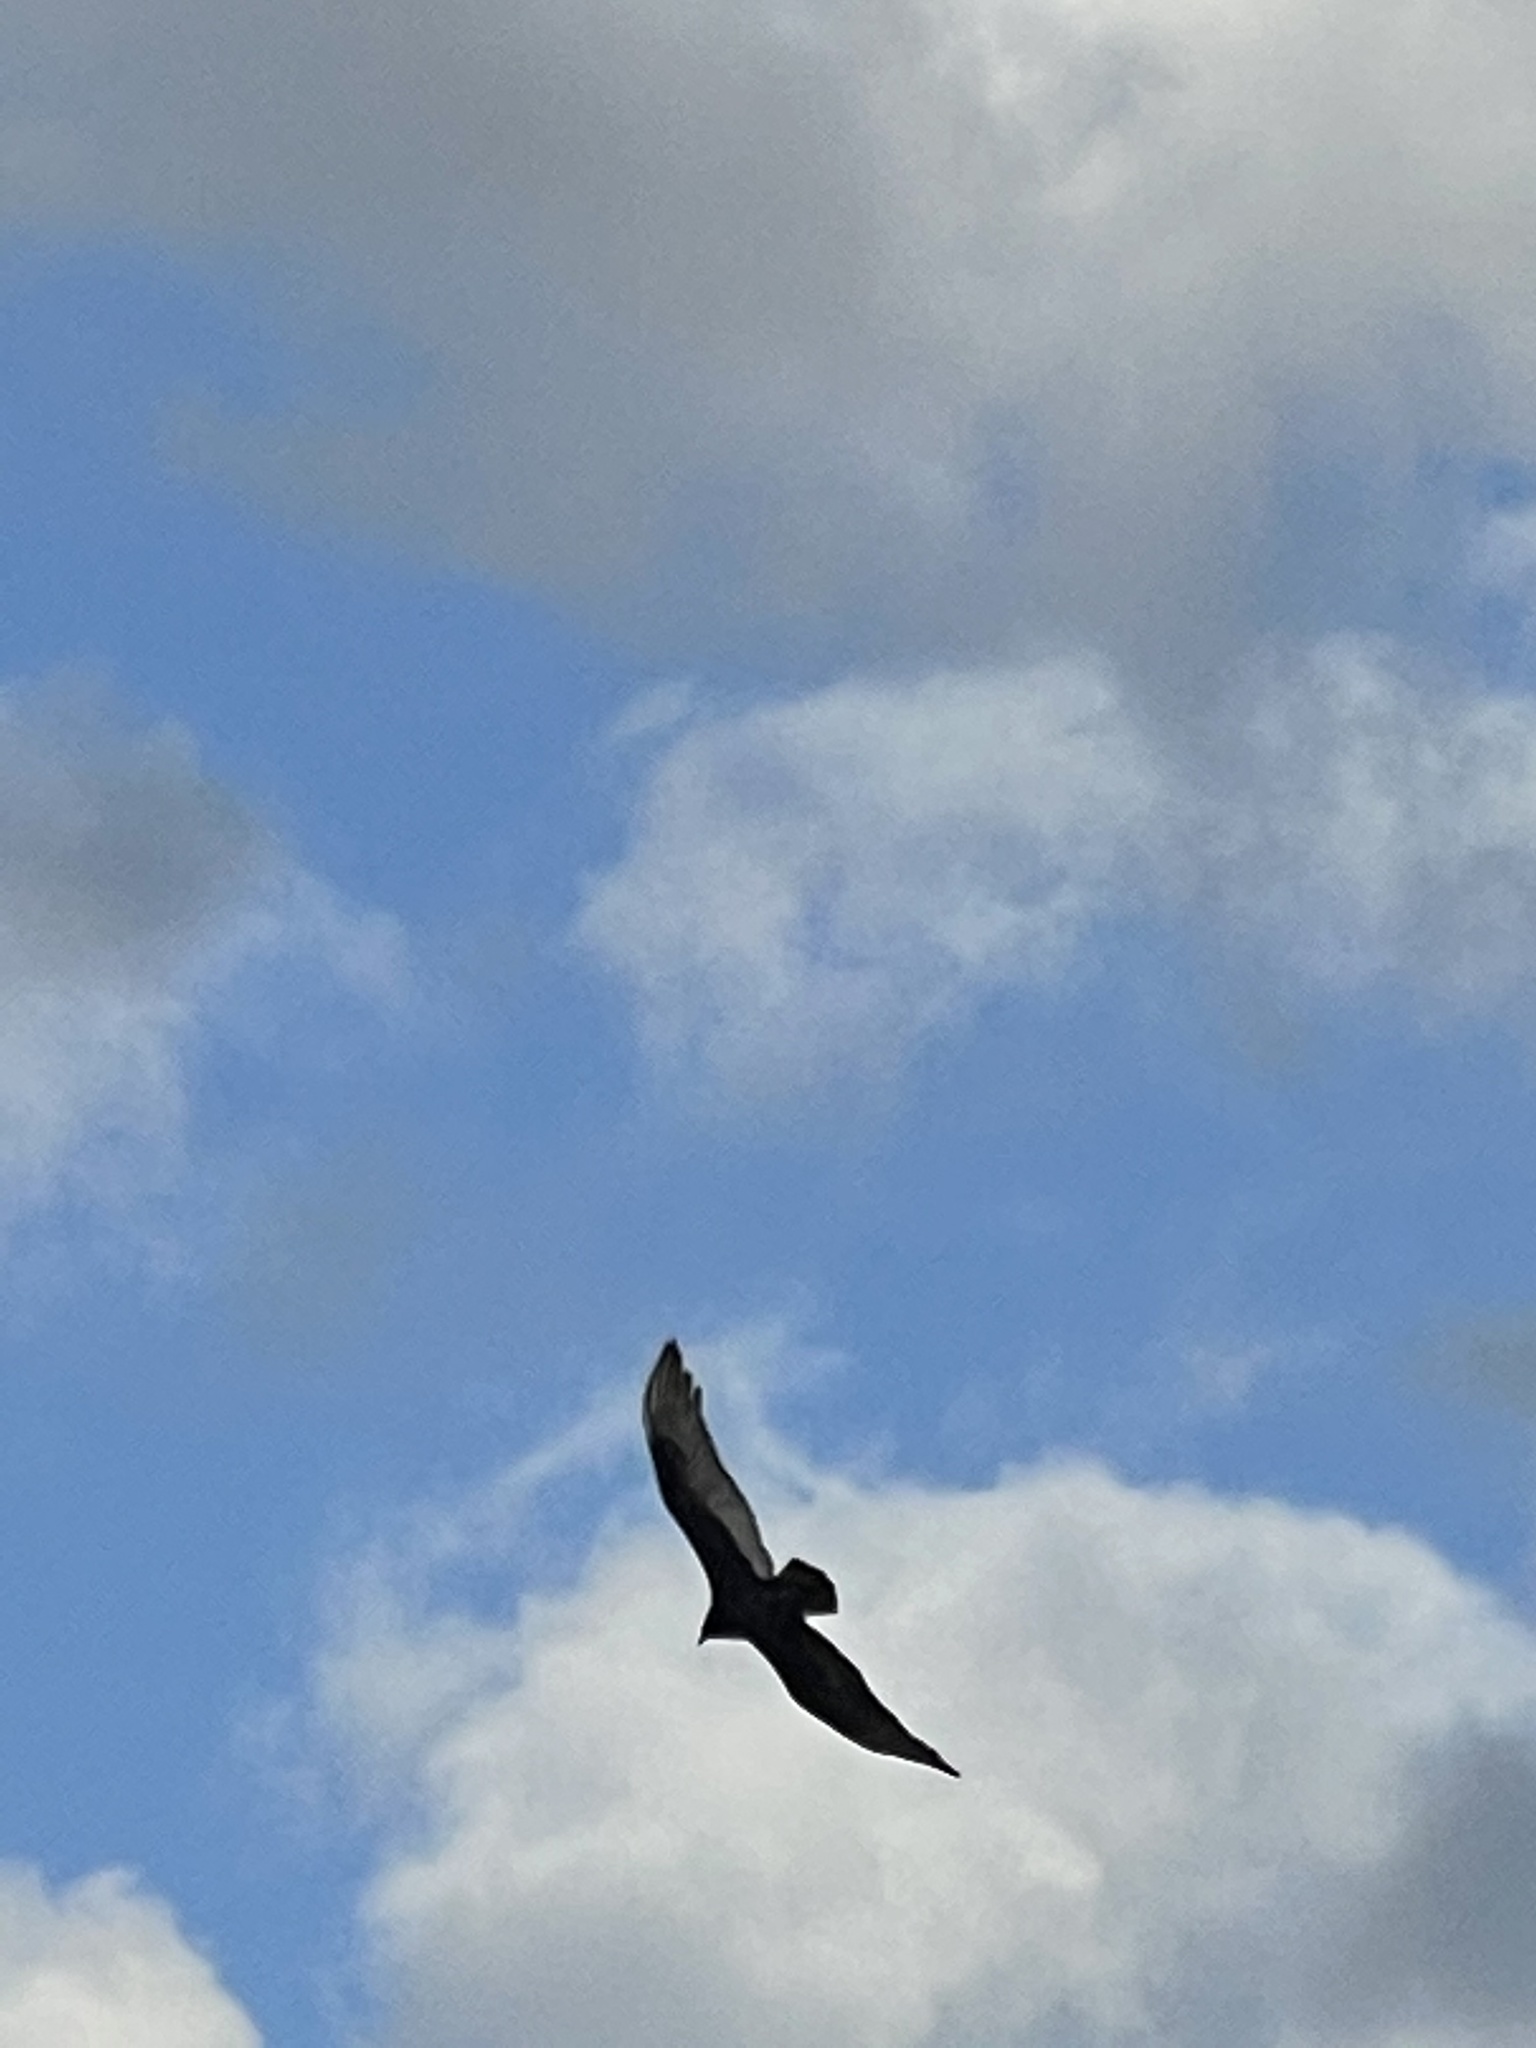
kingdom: Animalia
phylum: Chordata
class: Aves
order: Accipitriformes
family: Cathartidae
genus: Cathartes
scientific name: Cathartes aura
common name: Turkey vulture
